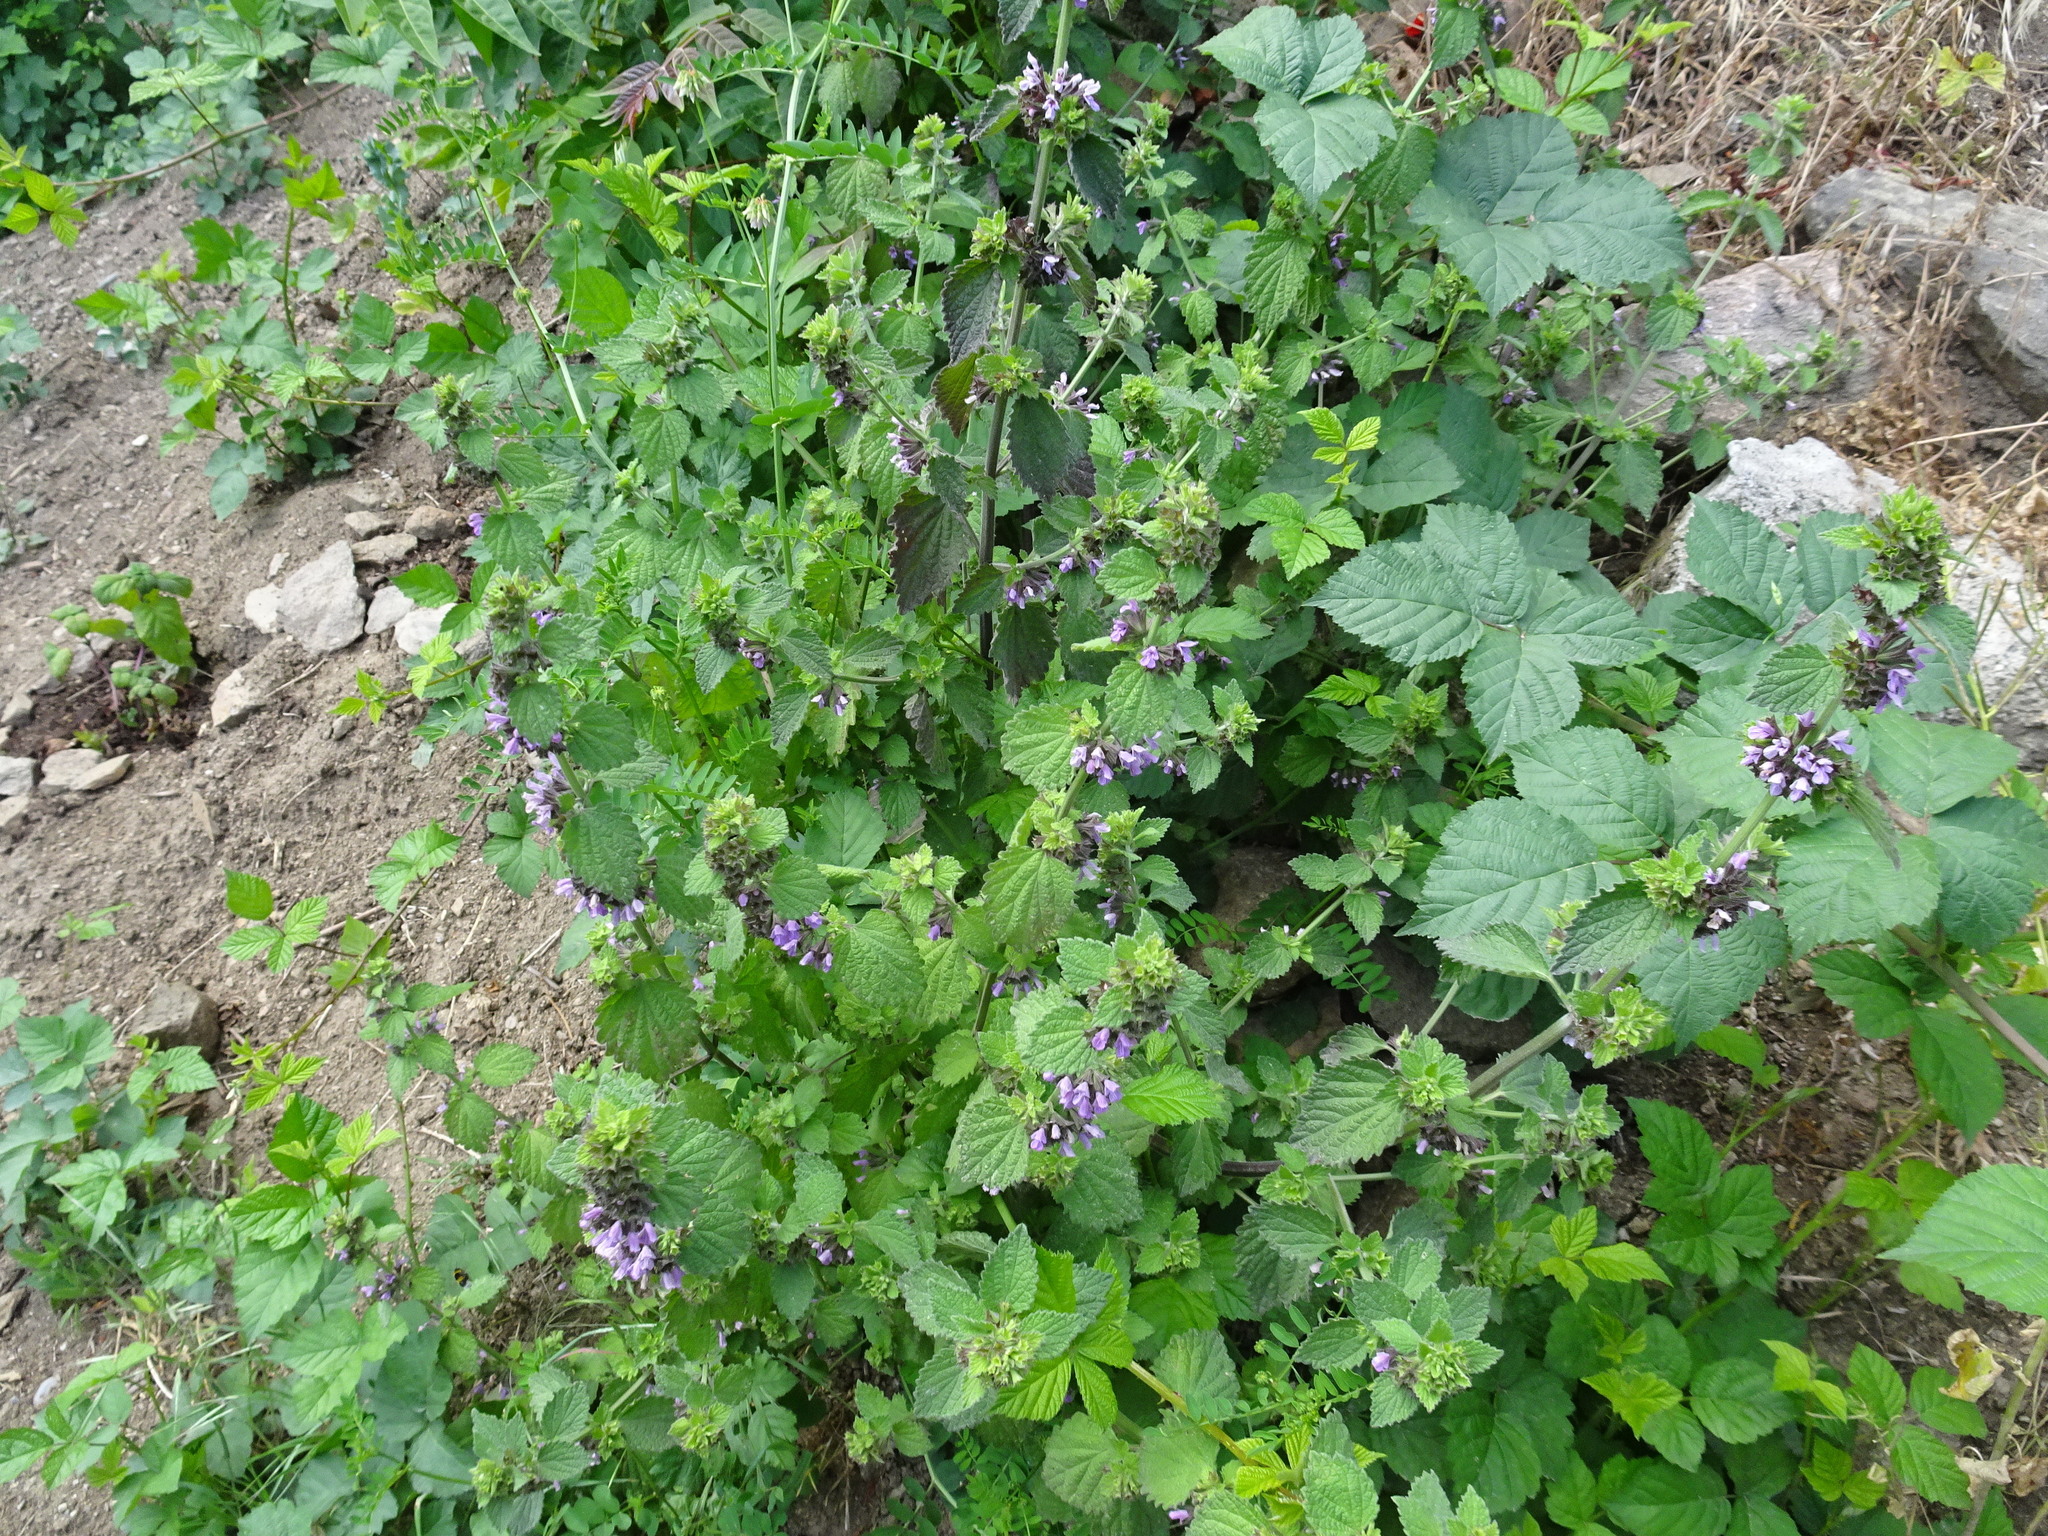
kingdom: Plantae
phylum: Tracheophyta
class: Magnoliopsida
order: Lamiales
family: Lamiaceae
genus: Ballota
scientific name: Ballota nigra
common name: Black horehound
